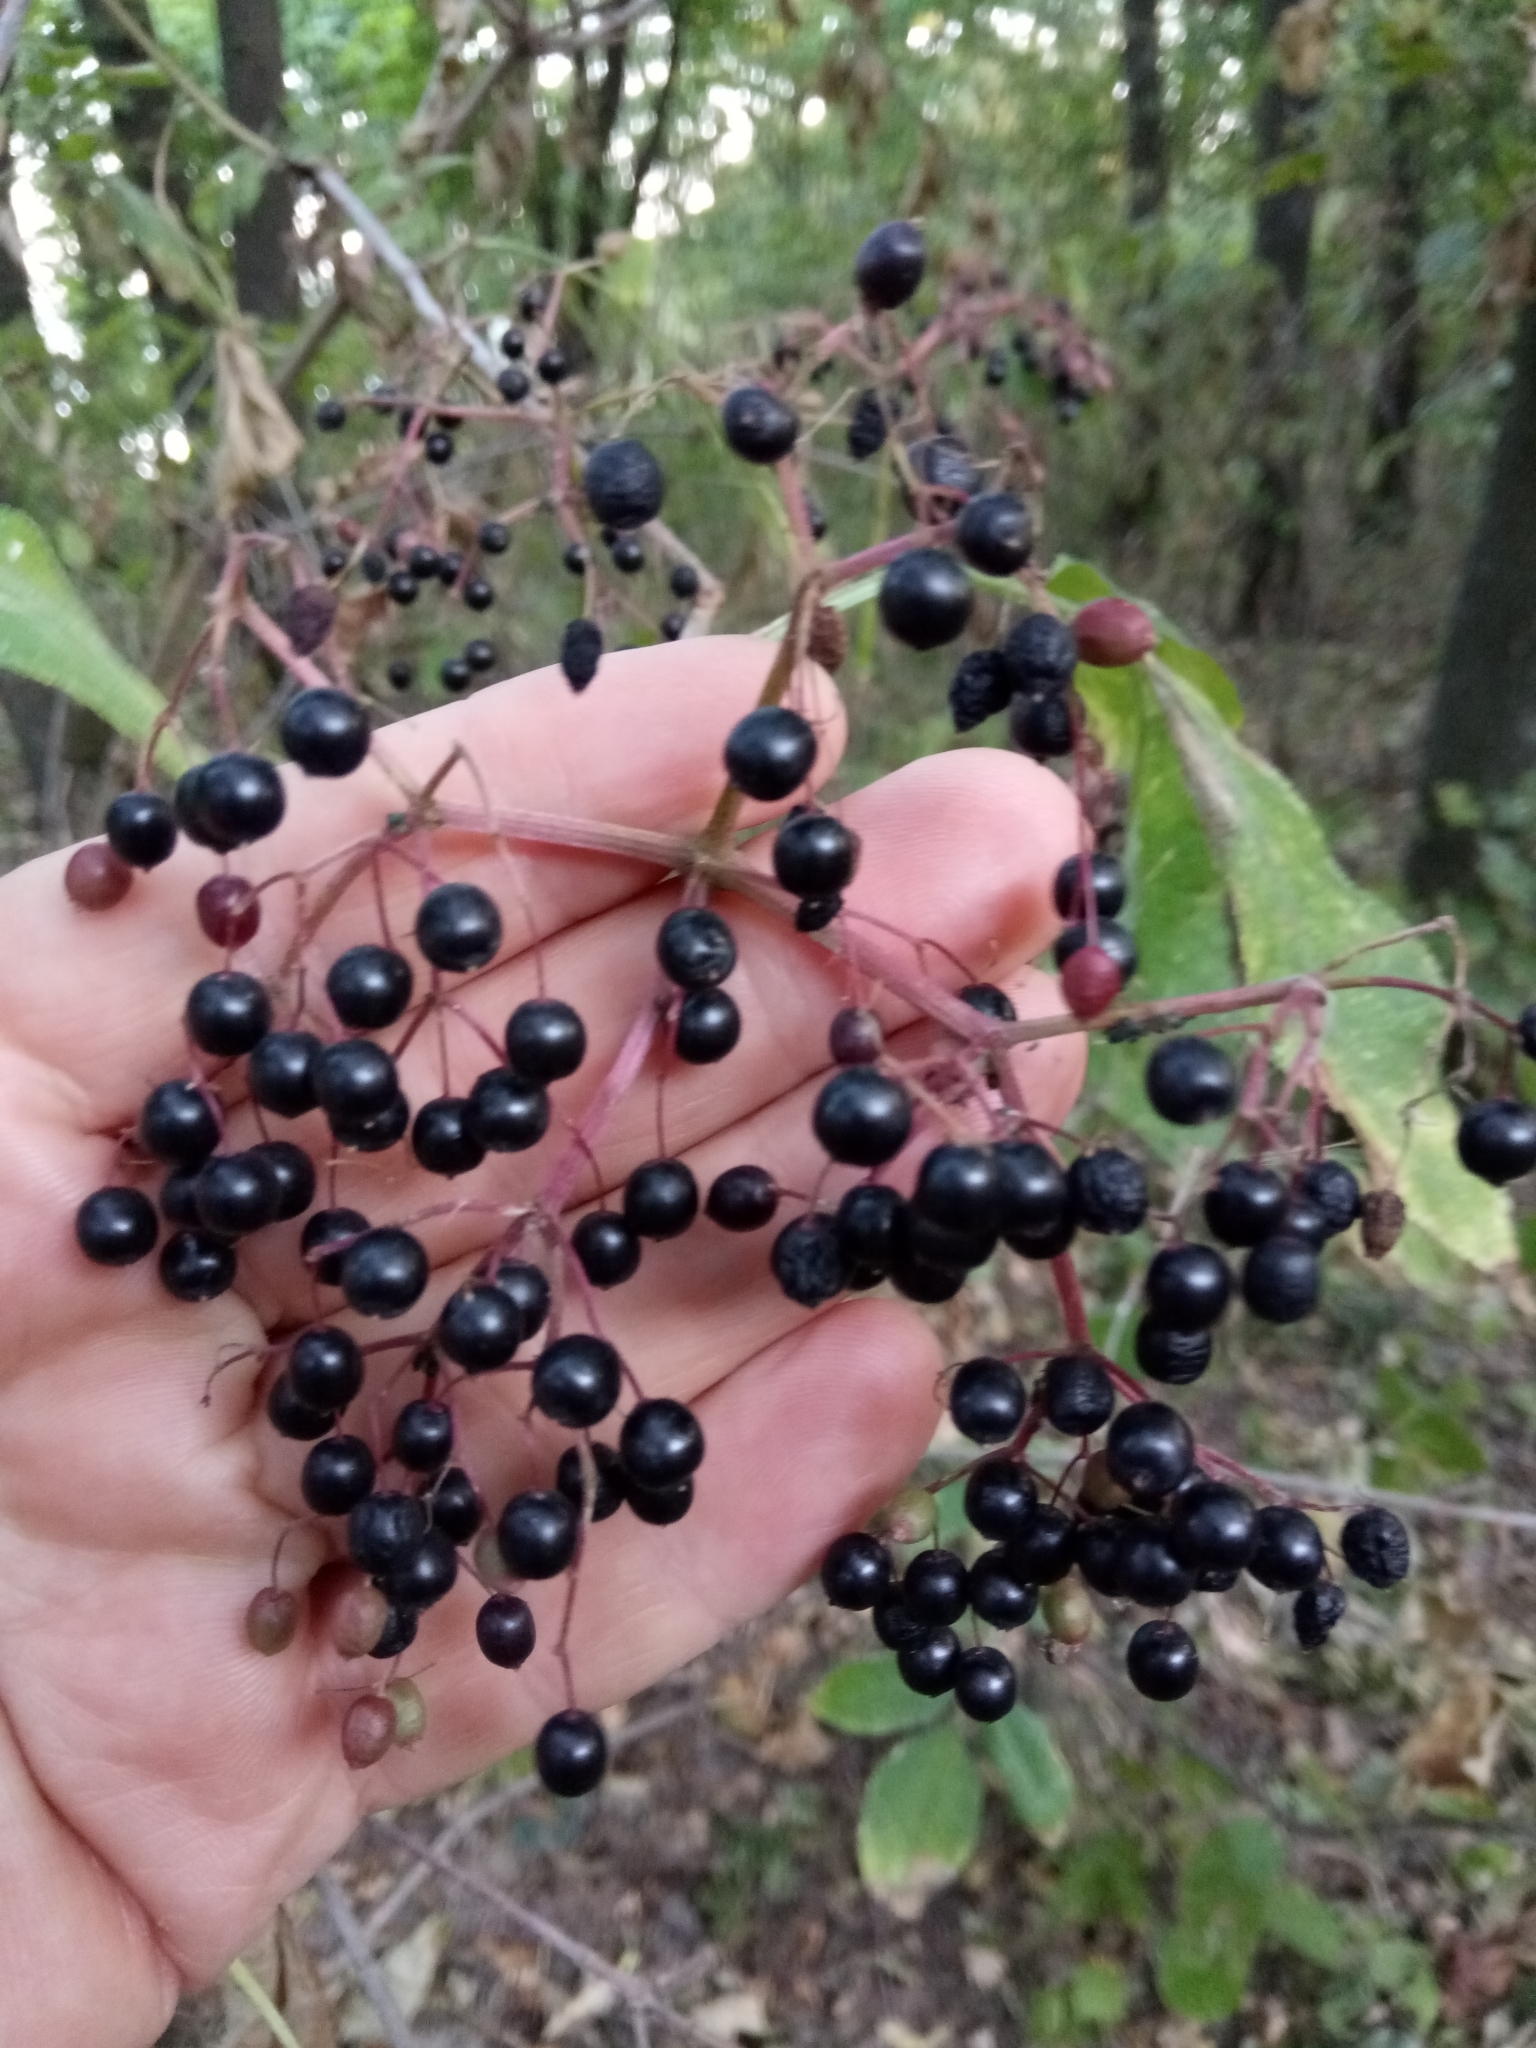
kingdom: Plantae
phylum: Tracheophyta
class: Magnoliopsida
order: Dipsacales
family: Viburnaceae
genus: Sambucus
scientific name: Sambucus nigra
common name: Elder
